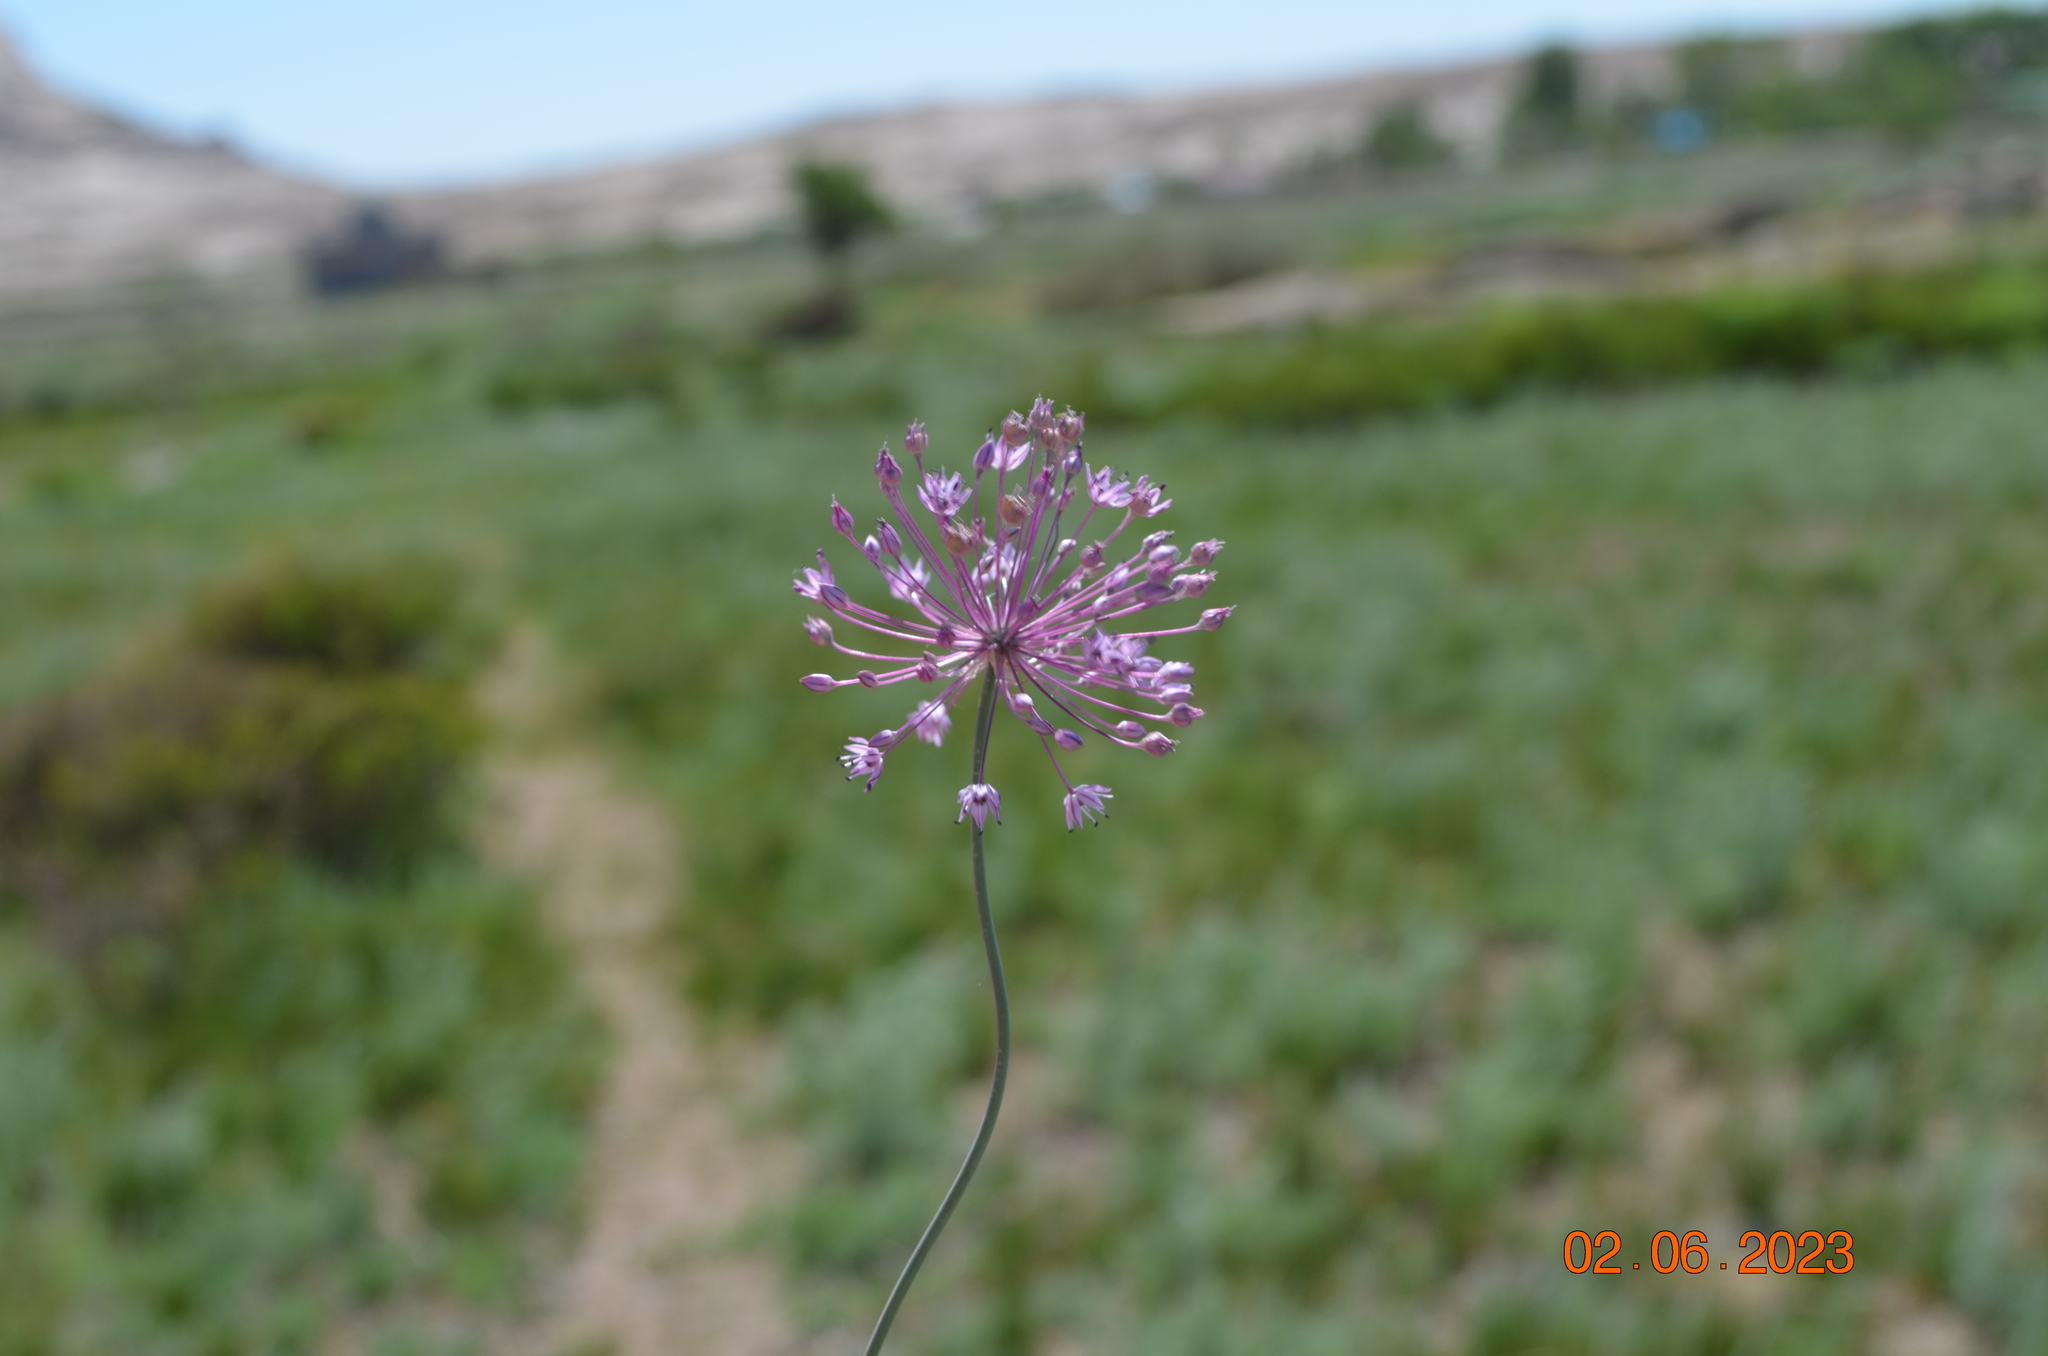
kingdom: Plantae
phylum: Tracheophyta
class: Liliopsida
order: Asparagales
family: Amaryllidaceae
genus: Allium
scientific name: Allium pallasii
